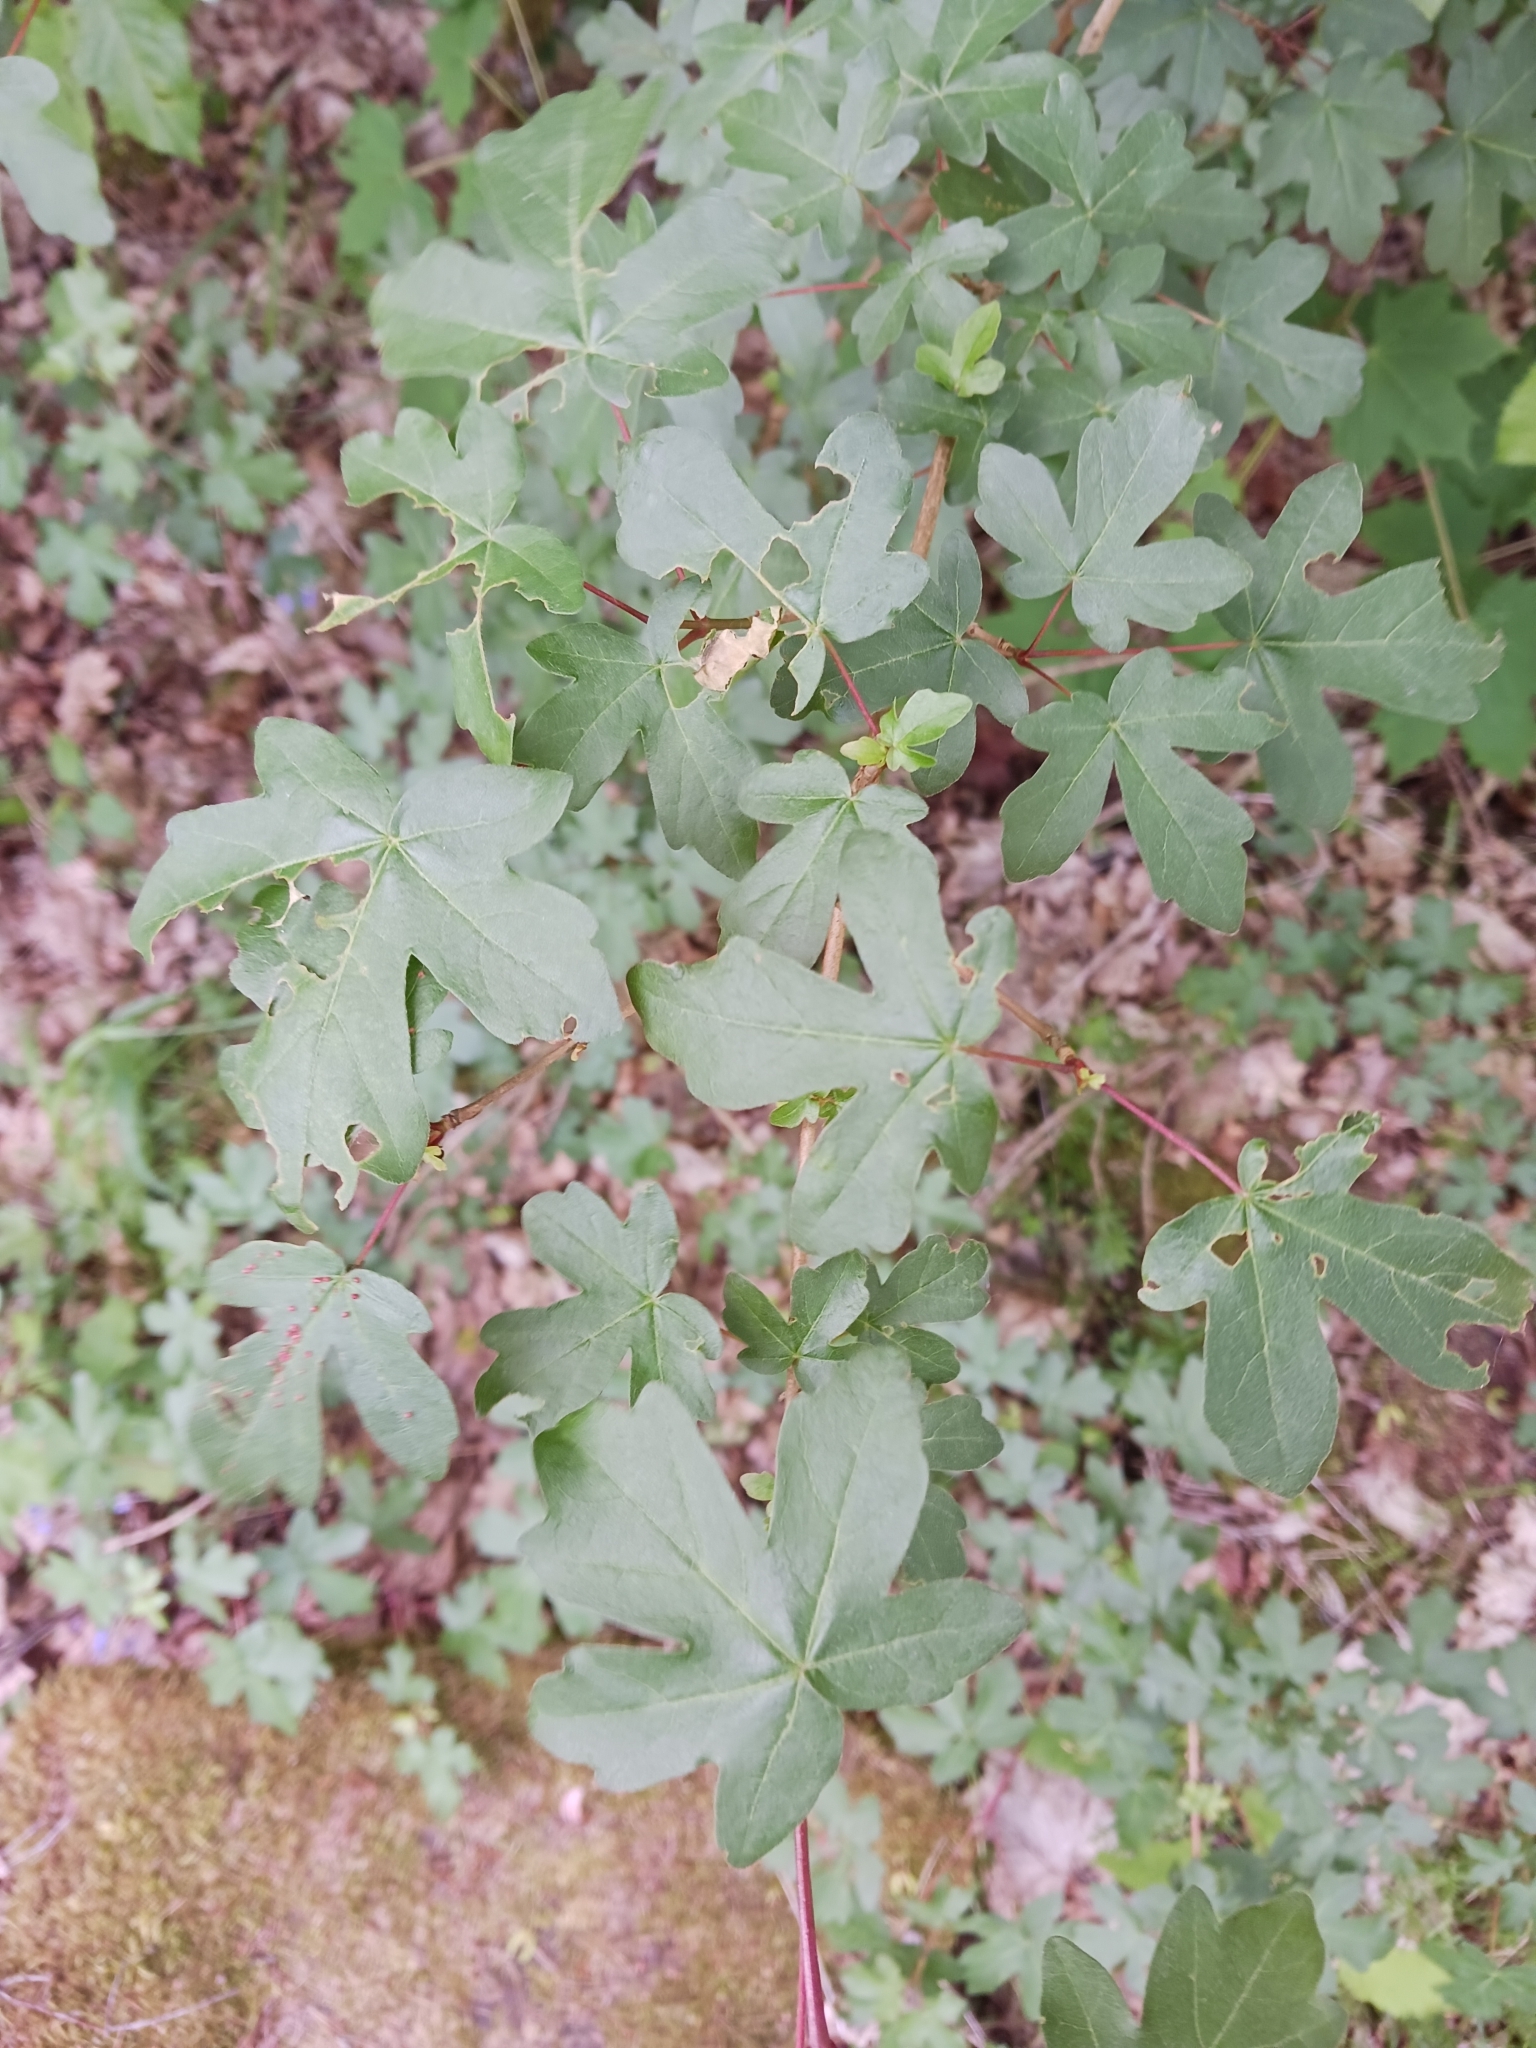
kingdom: Plantae
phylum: Tracheophyta
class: Magnoliopsida
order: Sapindales
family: Sapindaceae
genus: Acer
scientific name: Acer campestre
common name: Field maple
